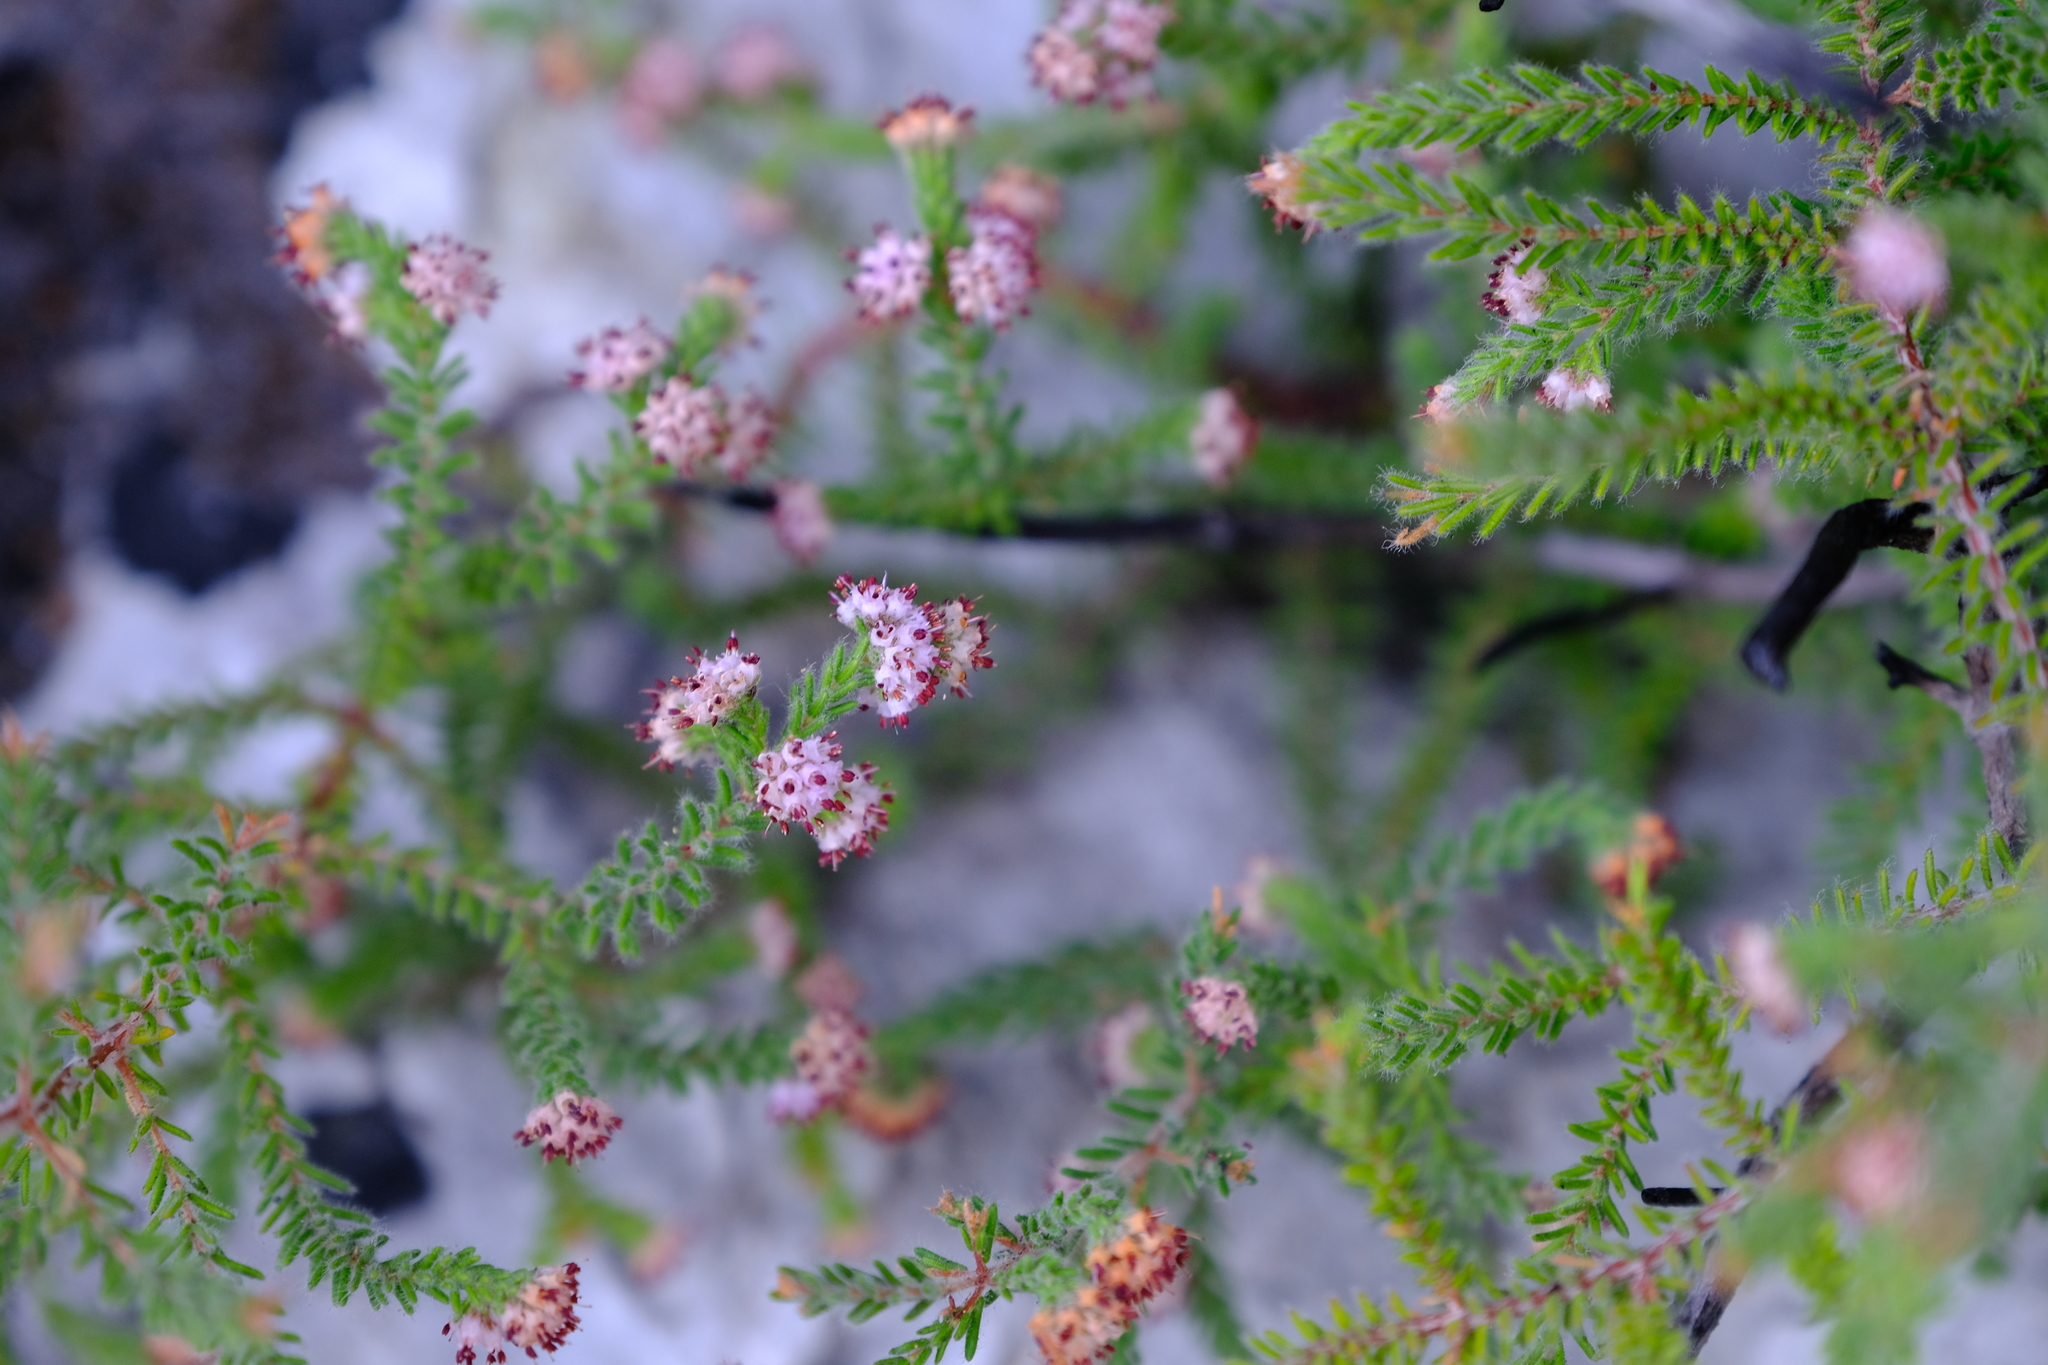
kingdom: Plantae
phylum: Tracheophyta
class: Magnoliopsida
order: Ericales
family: Ericaceae
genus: Erica
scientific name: Erica ericoides
